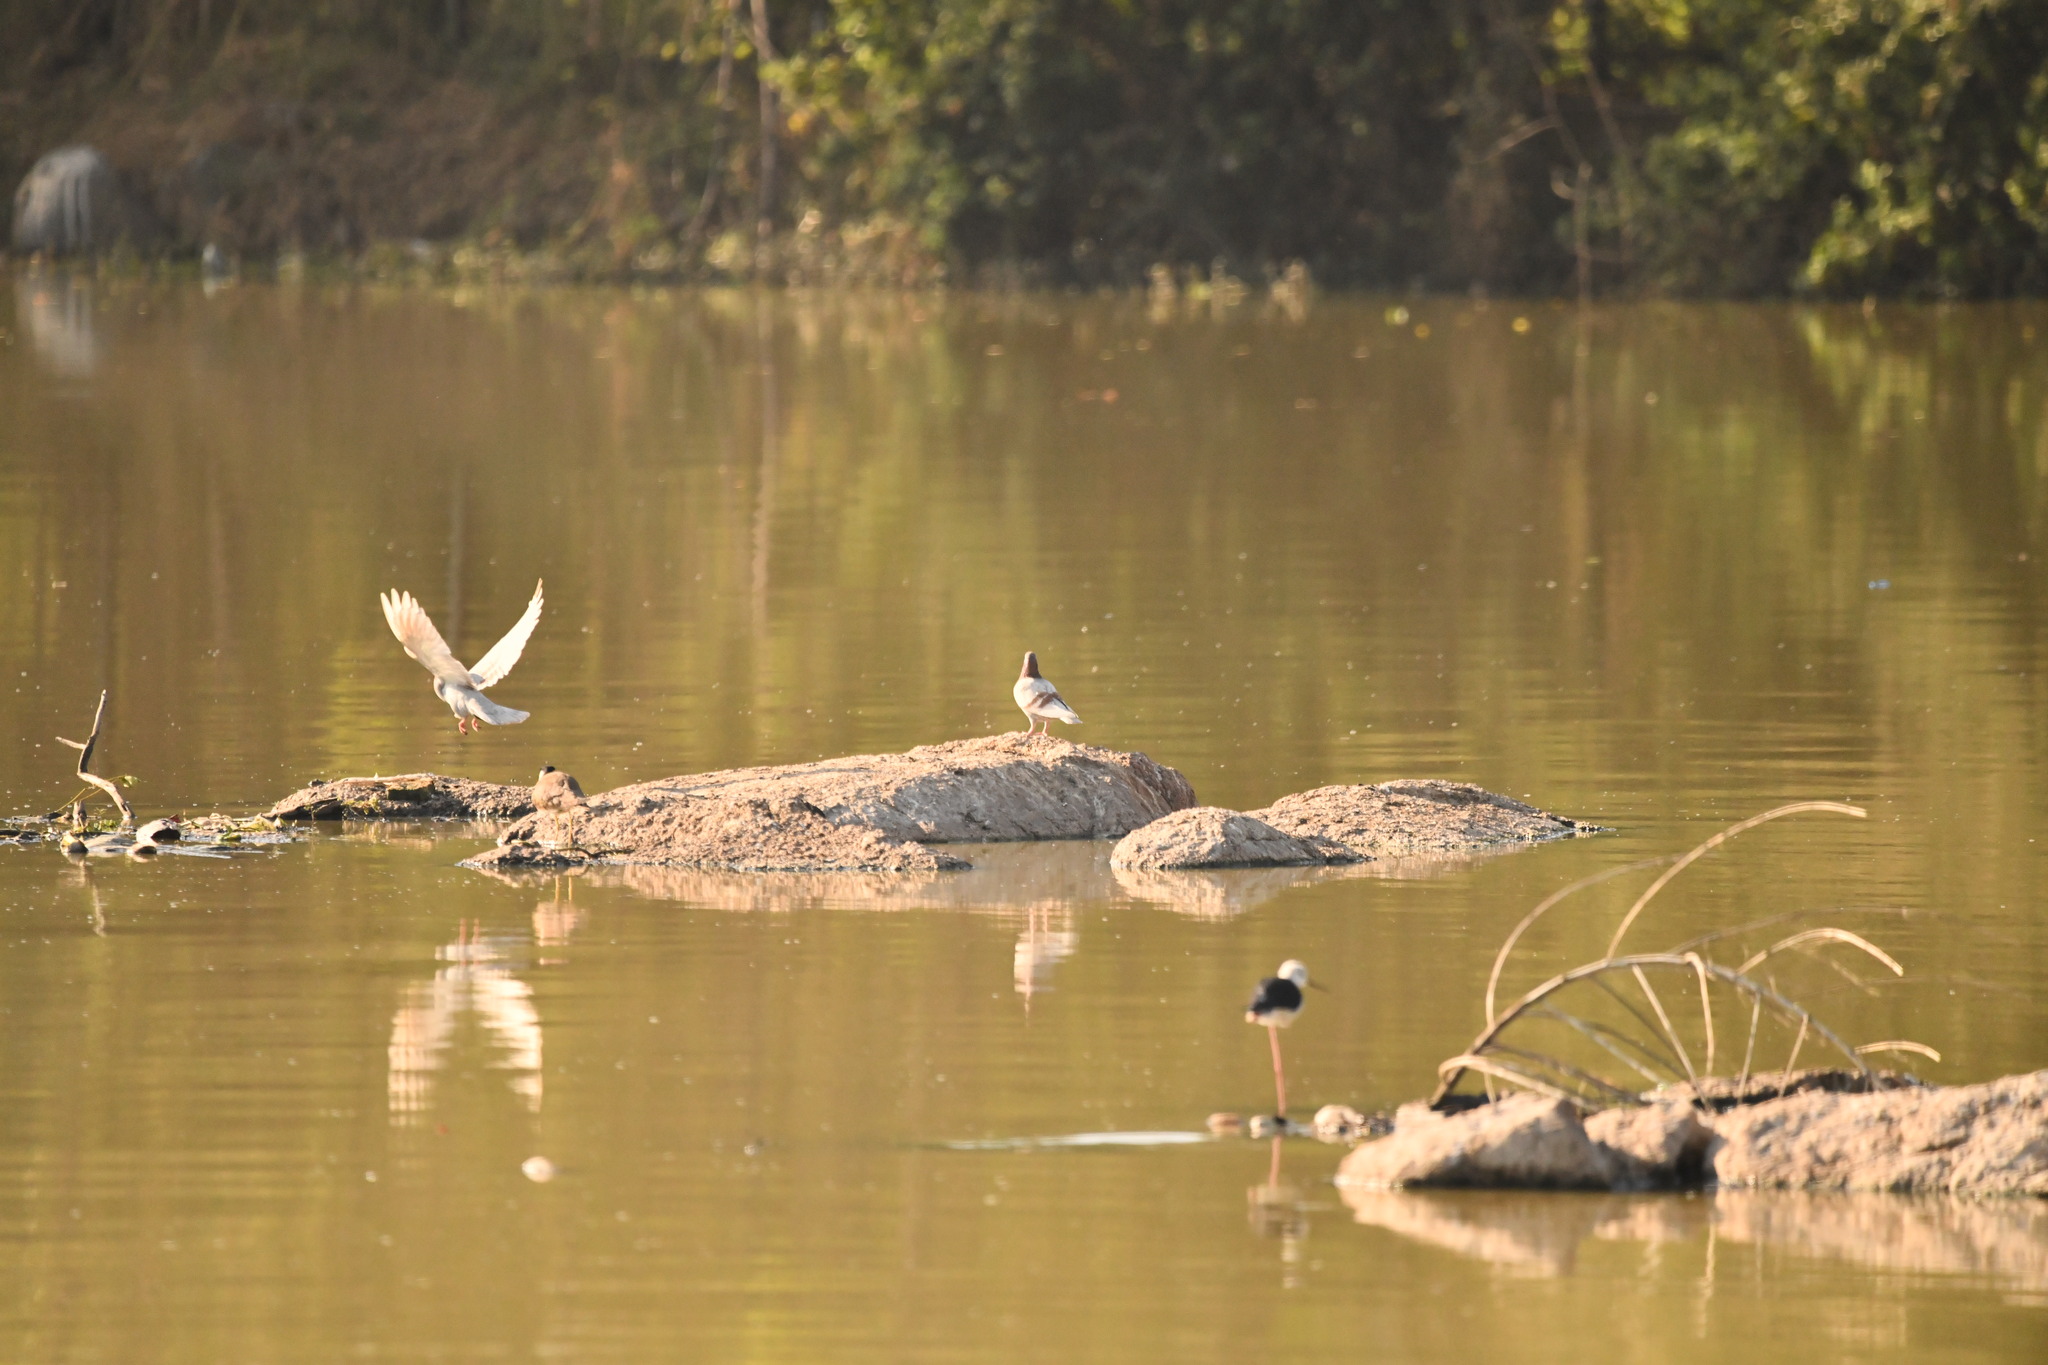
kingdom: Animalia
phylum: Chordata
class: Aves
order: Columbiformes
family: Columbidae
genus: Columba
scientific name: Columba livia
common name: Rock pigeon
